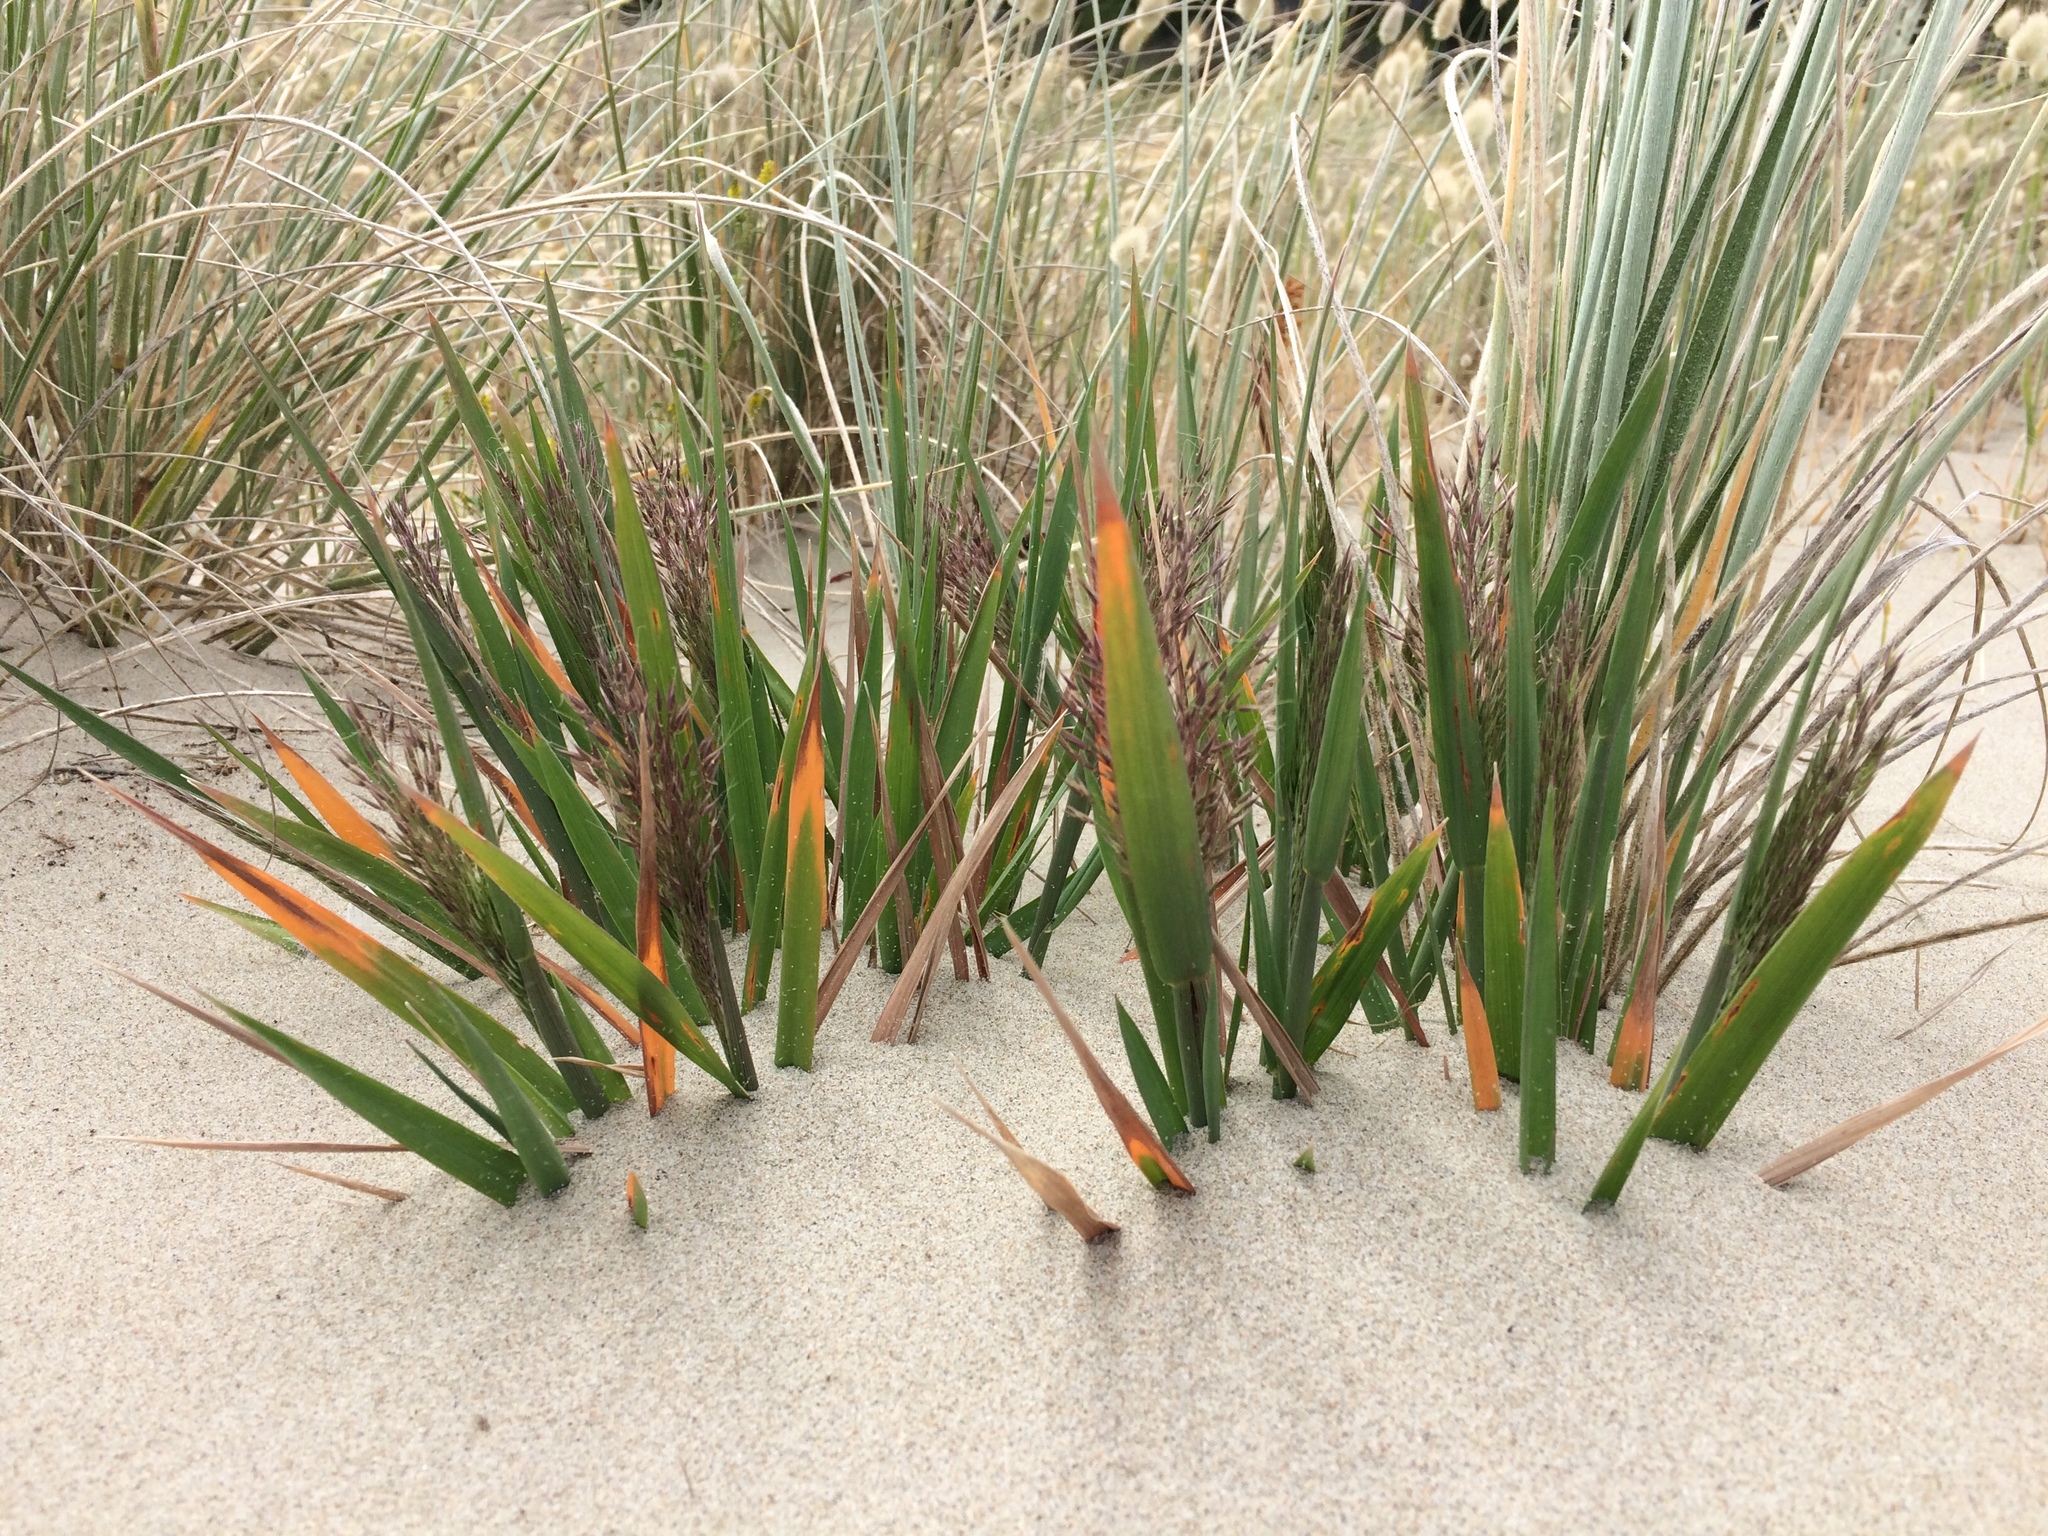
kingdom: Plantae
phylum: Tracheophyta
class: Liliopsida
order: Poales
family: Poaceae
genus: Lachnagrostis
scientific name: Lachnagrostis billardierei
